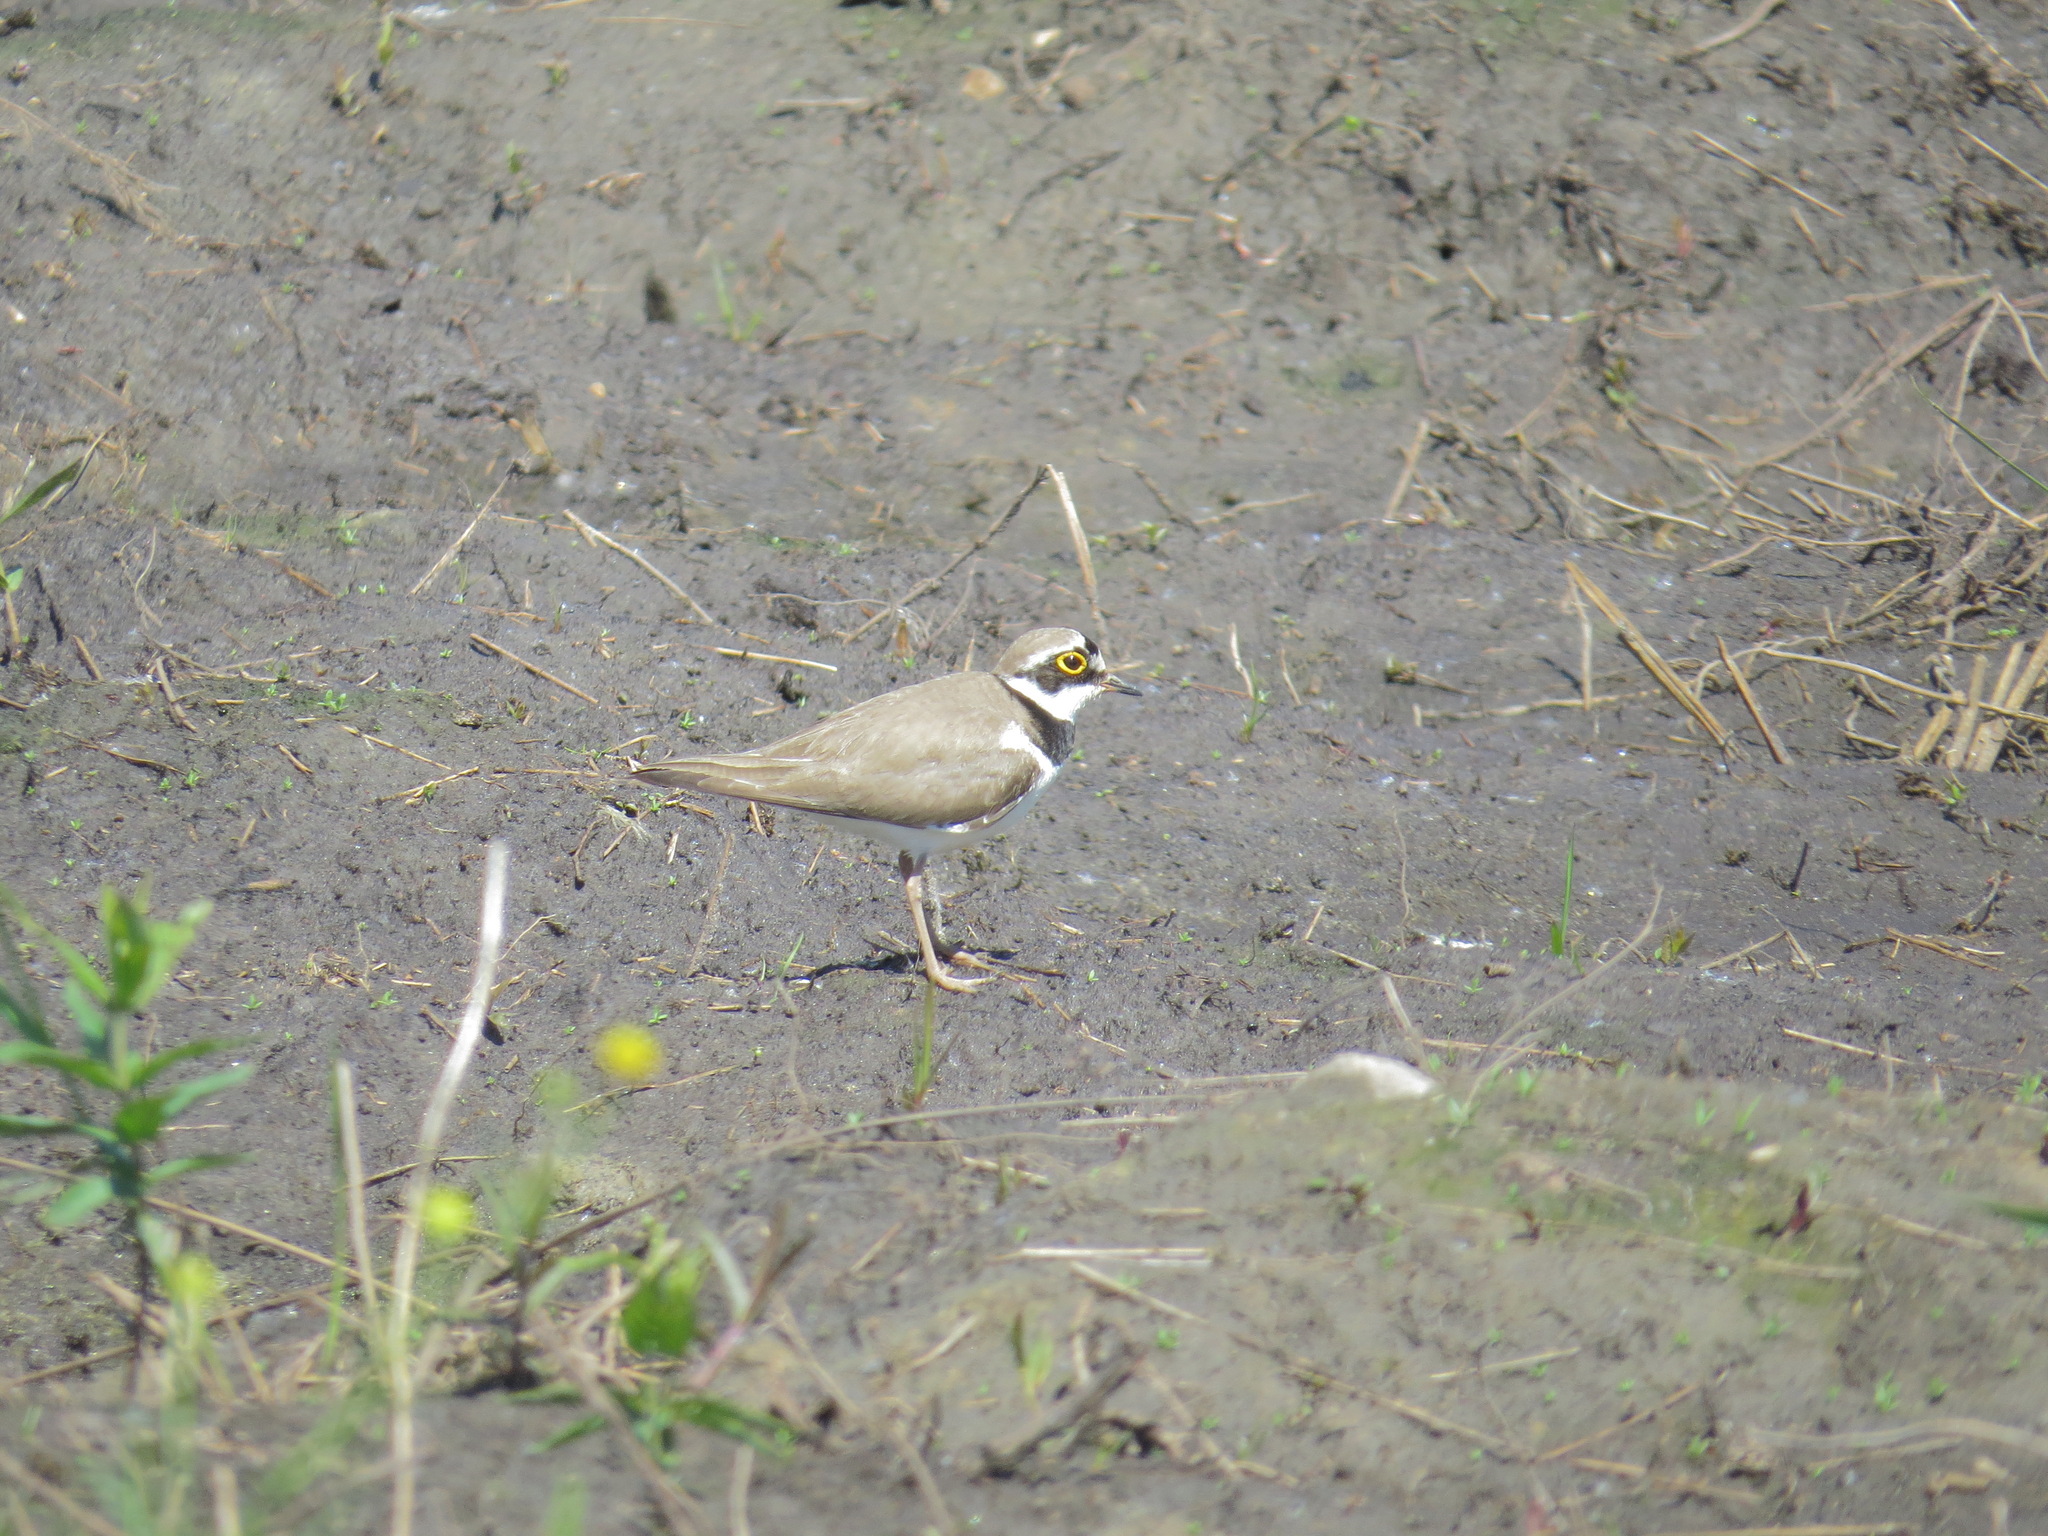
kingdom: Animalia
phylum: Chordata
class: Aves
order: Charadriiformes
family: Charadriidae
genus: Charadrius
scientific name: Charadrius dubius
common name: Little ringed plover
